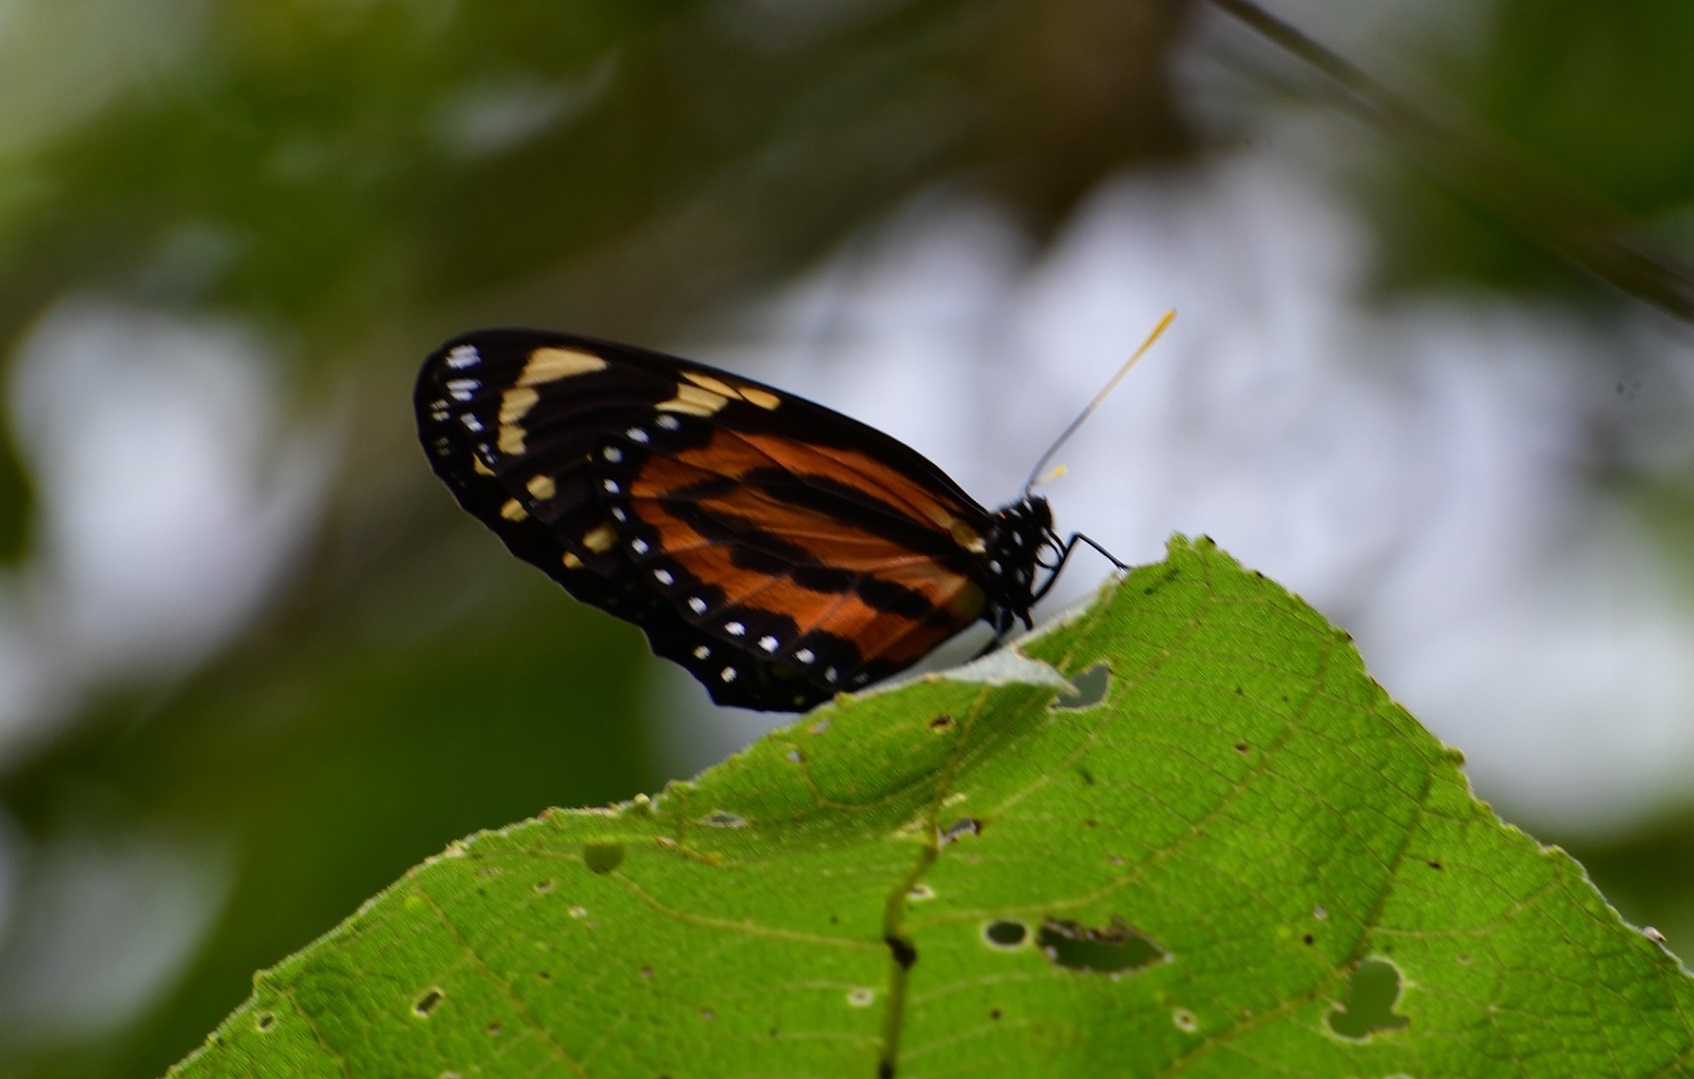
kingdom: Animalia
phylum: Arthropoda
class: Insecta
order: Lepidoptera
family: Nymphalidae
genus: Mechanitis
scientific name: Mechanitis menapis
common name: Menapis tigerwing
